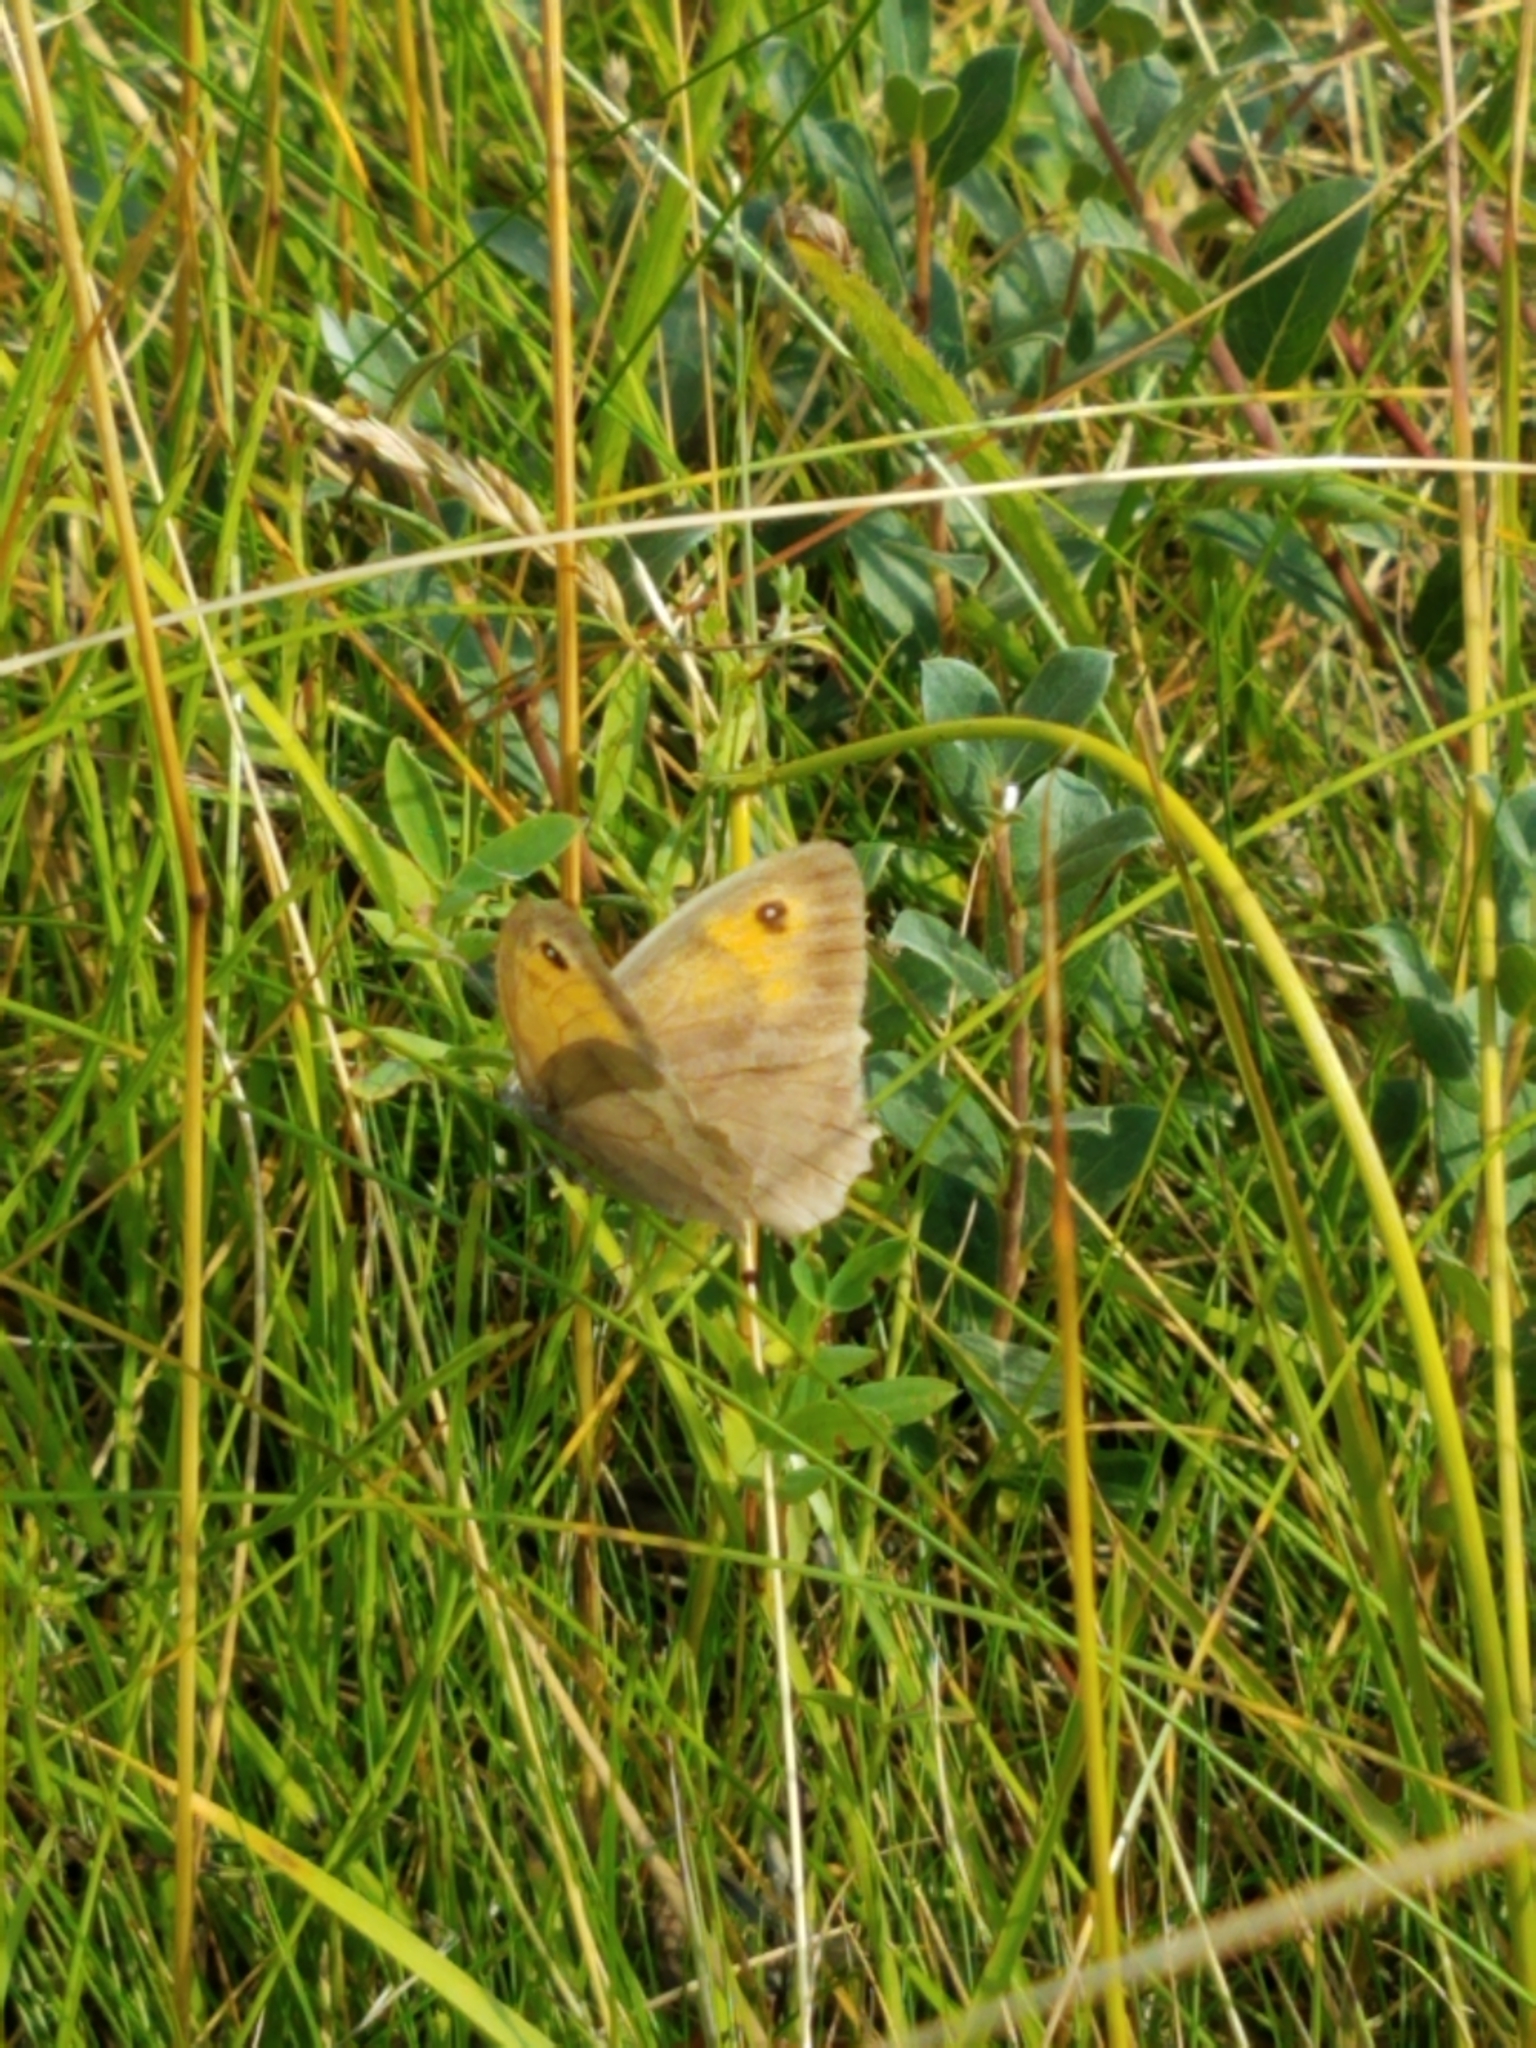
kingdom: Animalia
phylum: Arthropoda
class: Insecta
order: Lepidoptera
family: Nymphalidae
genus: Maniola
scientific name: Maniola jurtina
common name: Meadow brown
